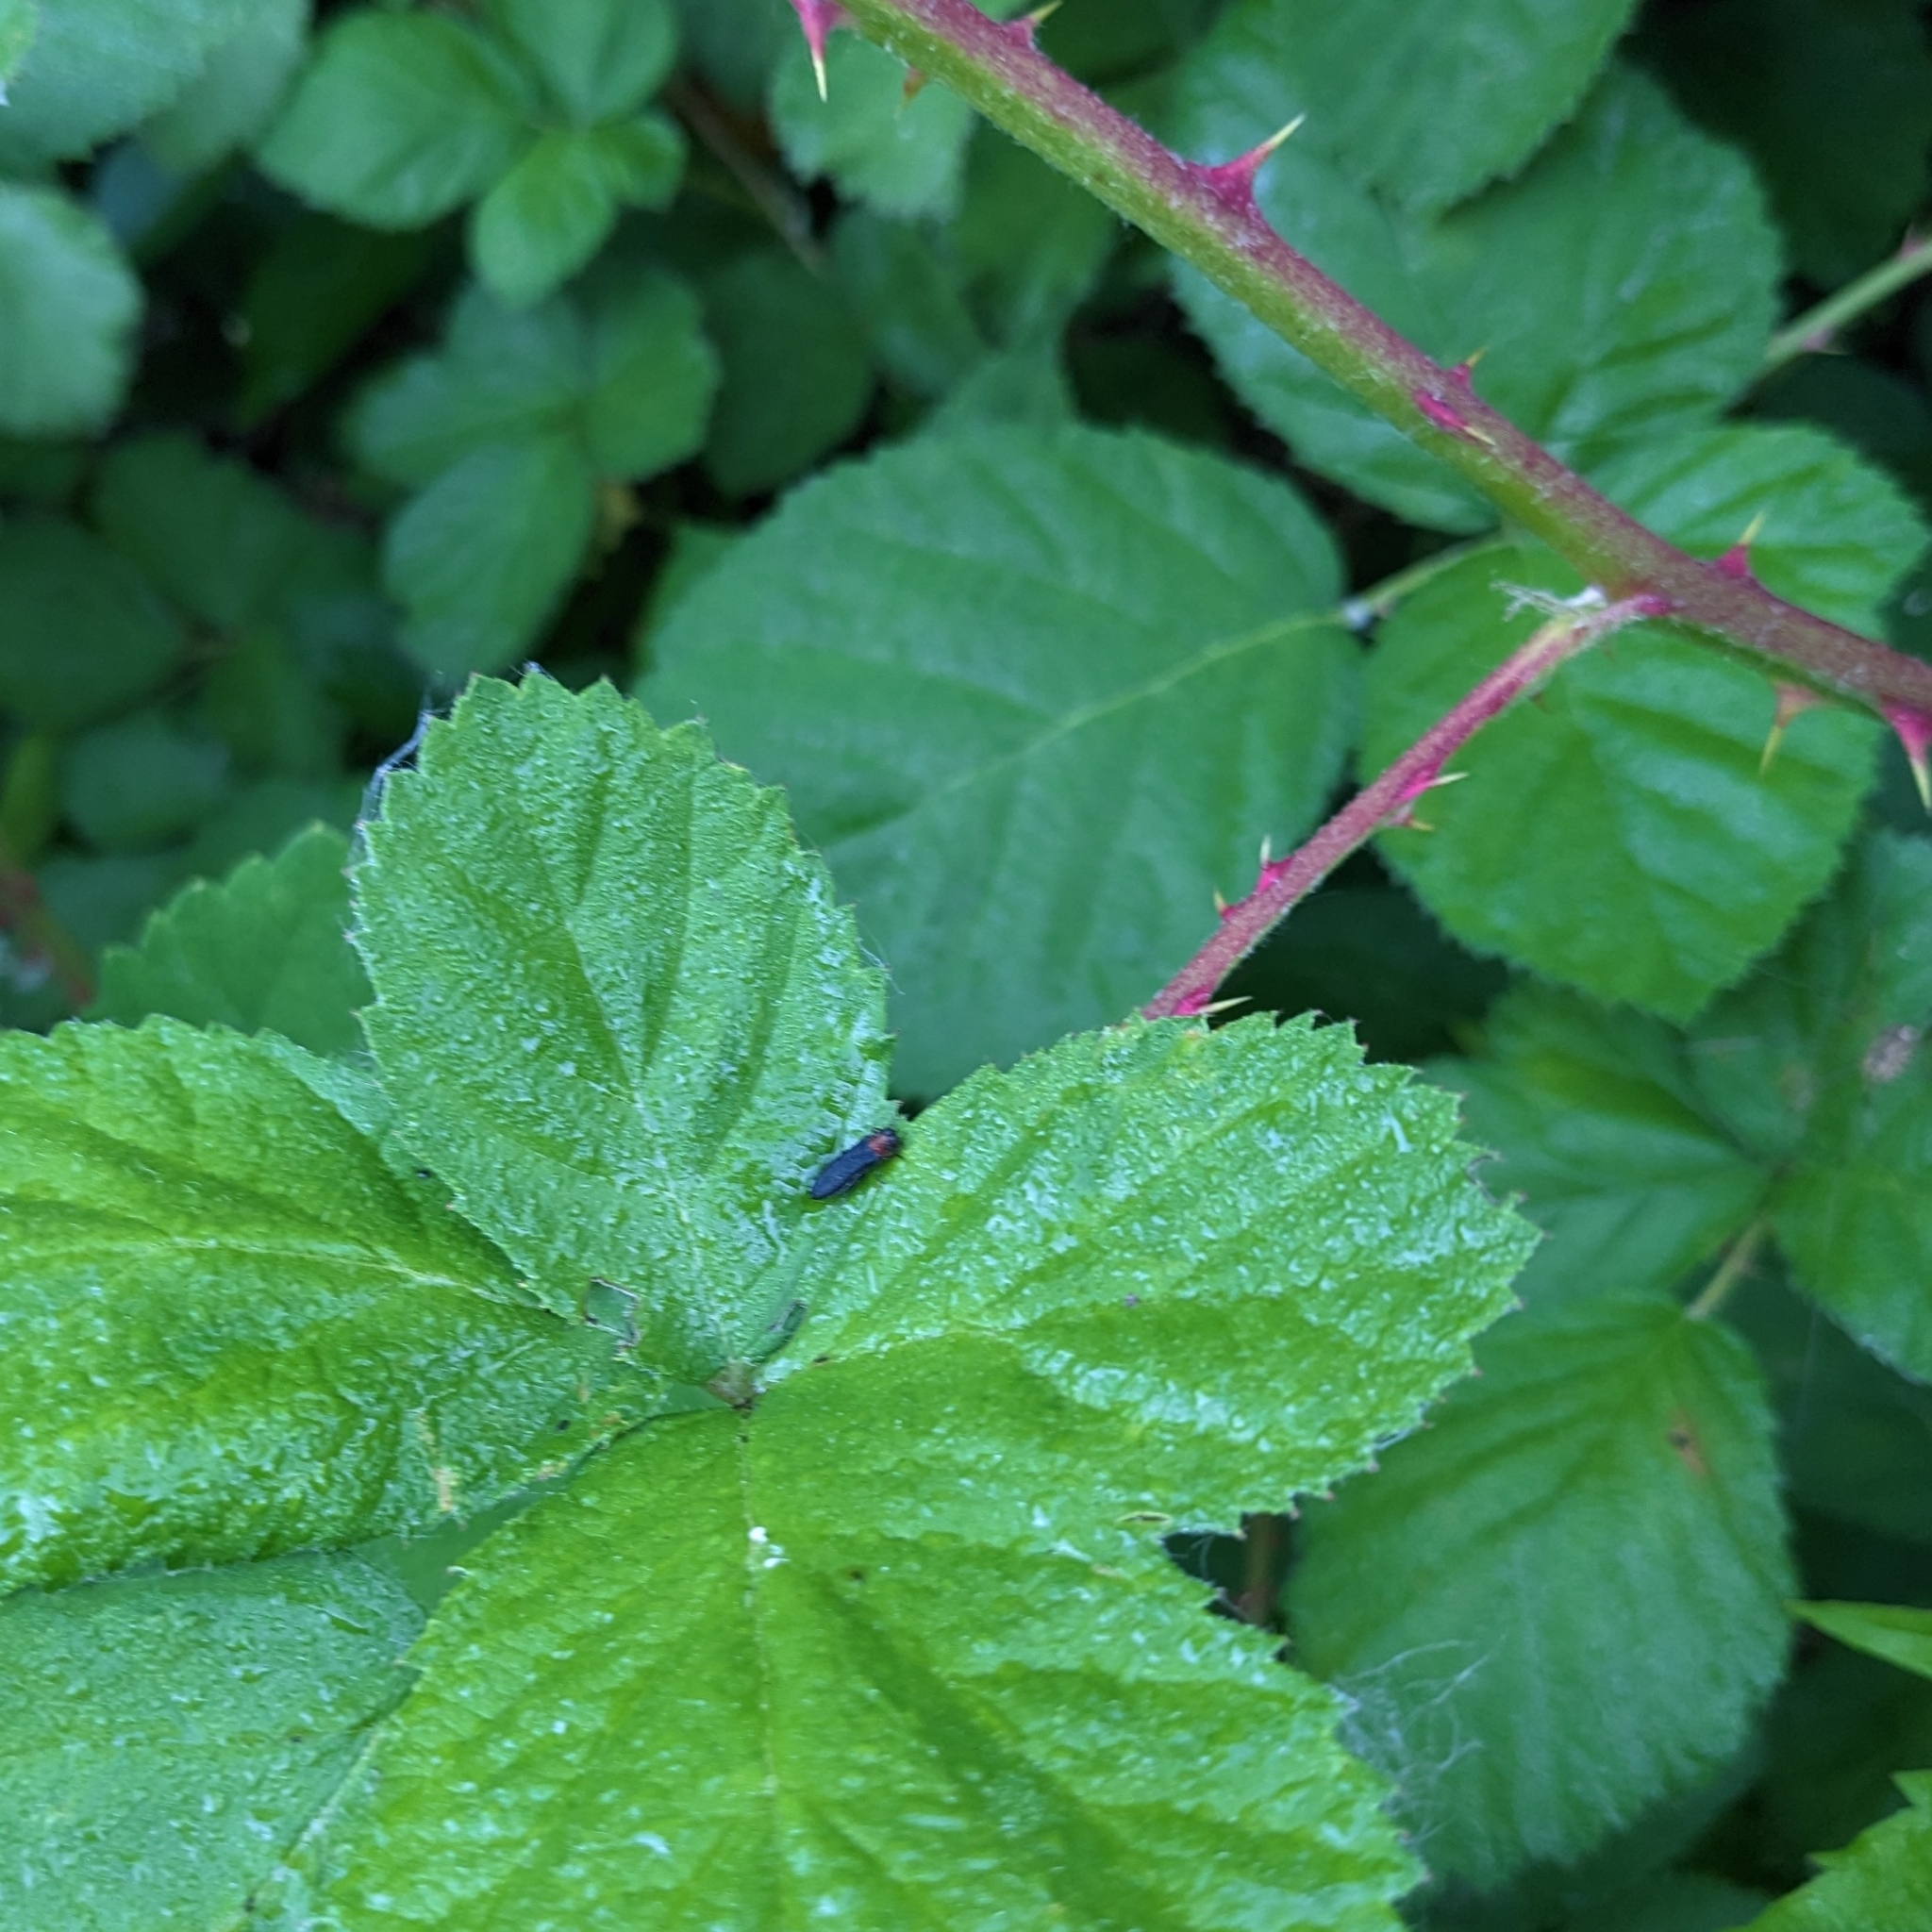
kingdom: Animalia
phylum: Arthropoda
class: Insecta
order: Coleoptera
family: Buprestidae
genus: Agrilus
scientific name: Agrilus ruficollis
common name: Red-necked cane borer beetle
